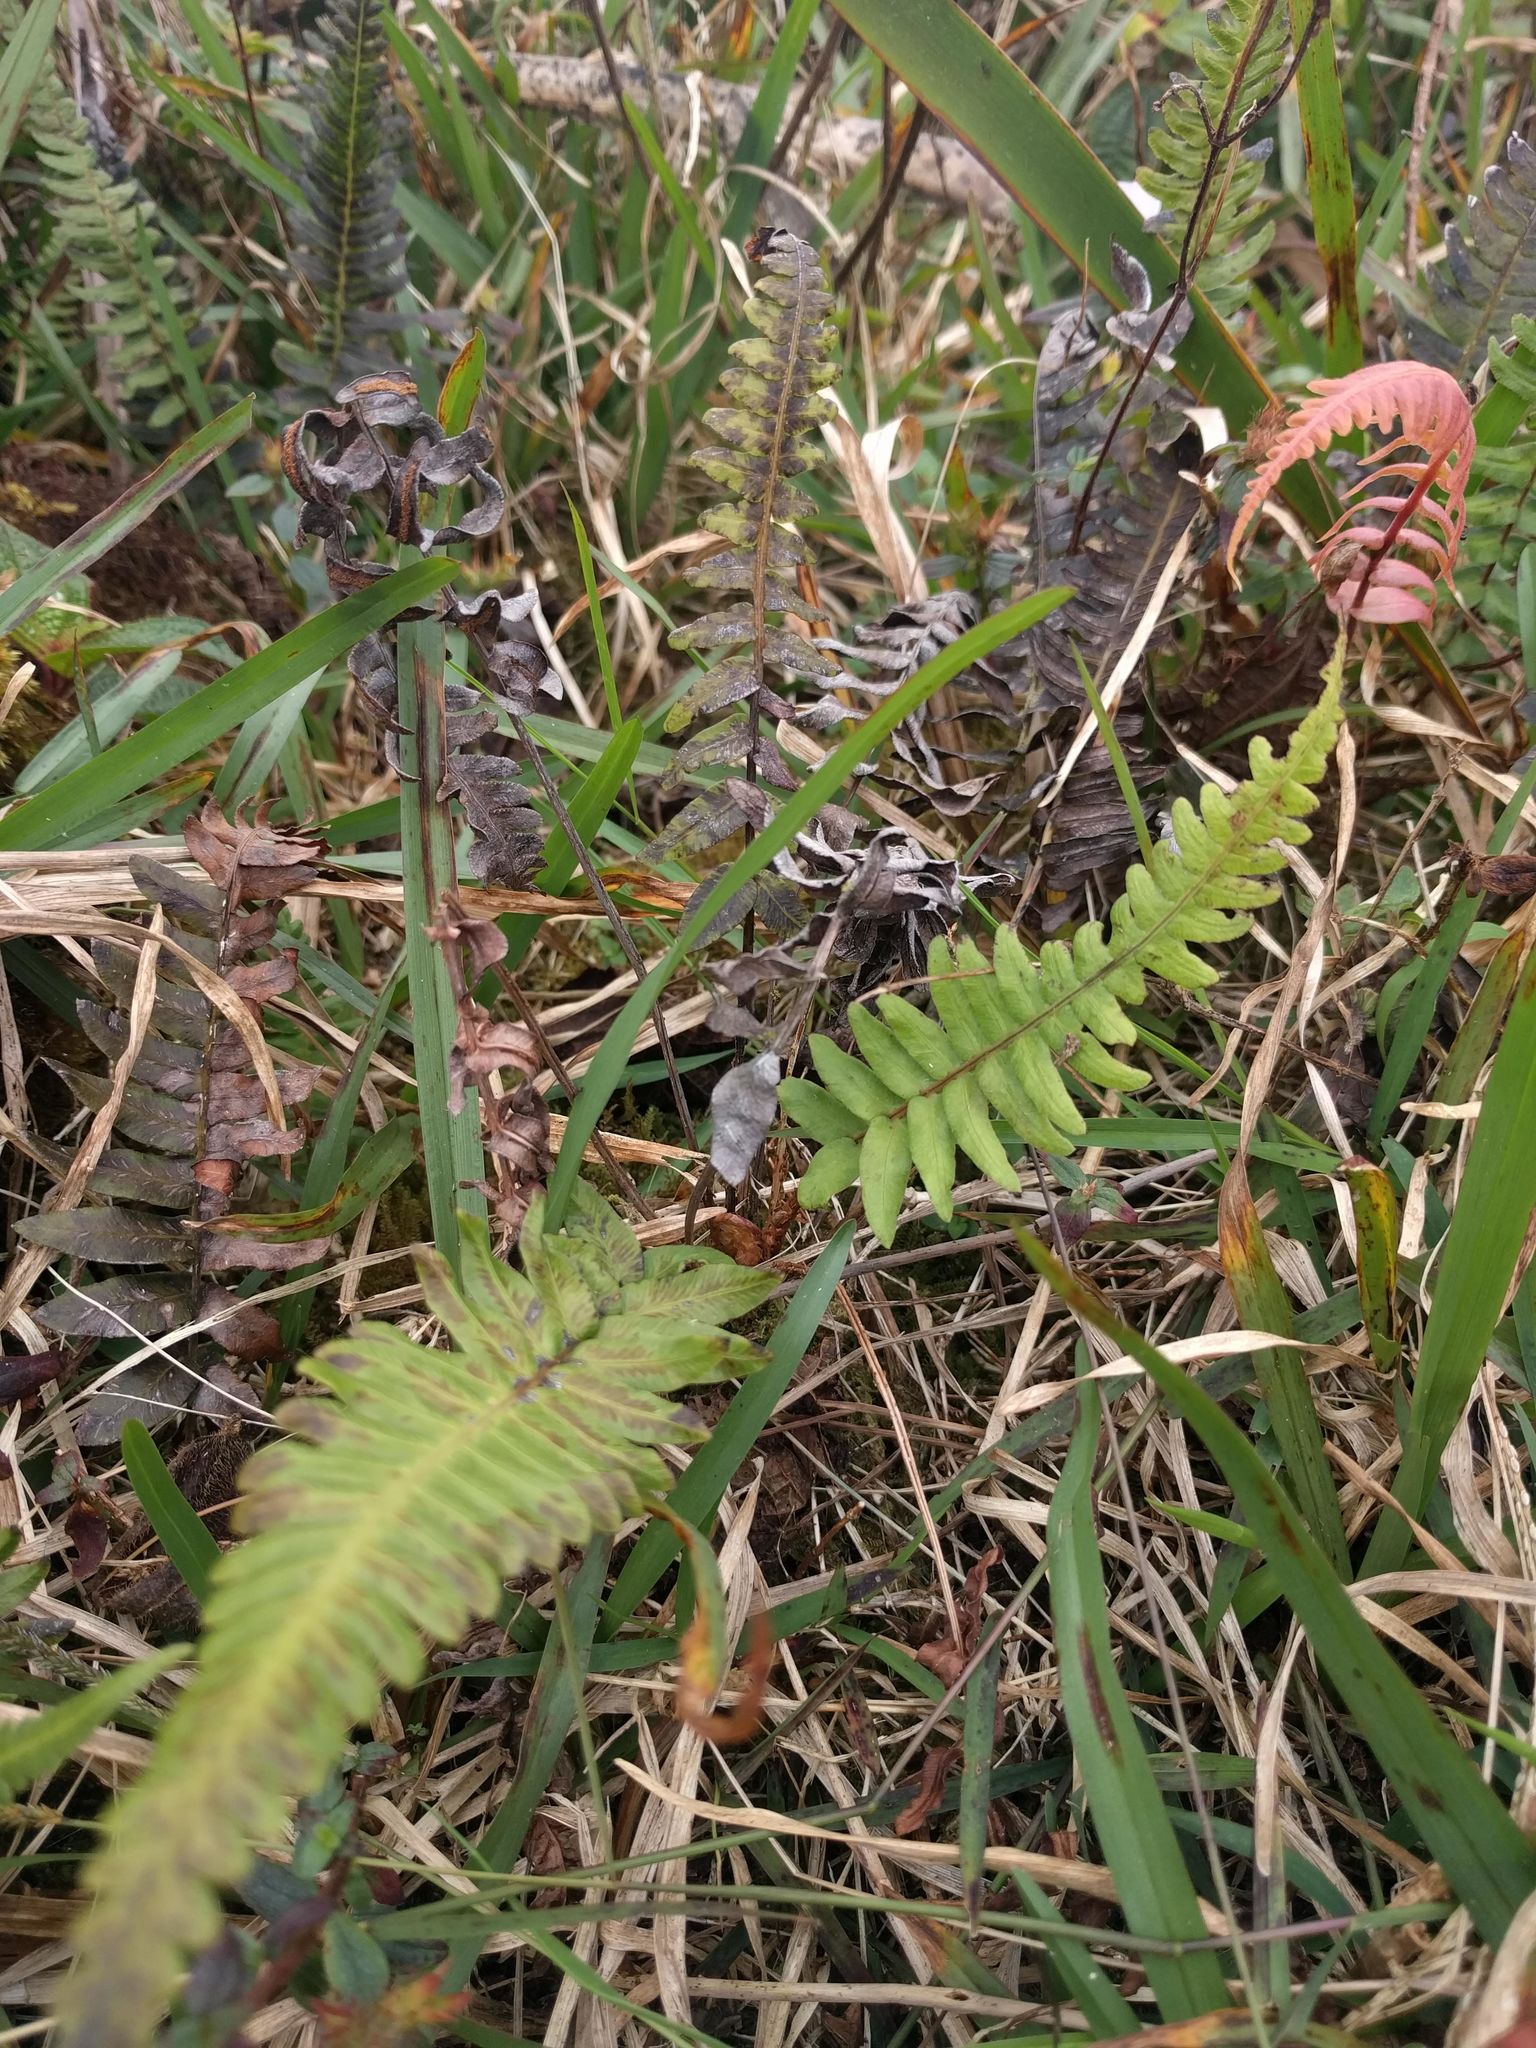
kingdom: Plantae
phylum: Tracheophyta
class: Polypodiopsida
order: Polypodiales
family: Blechnaceae
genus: Blechnum
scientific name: Blechnum appendiculatum
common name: Palm fern
